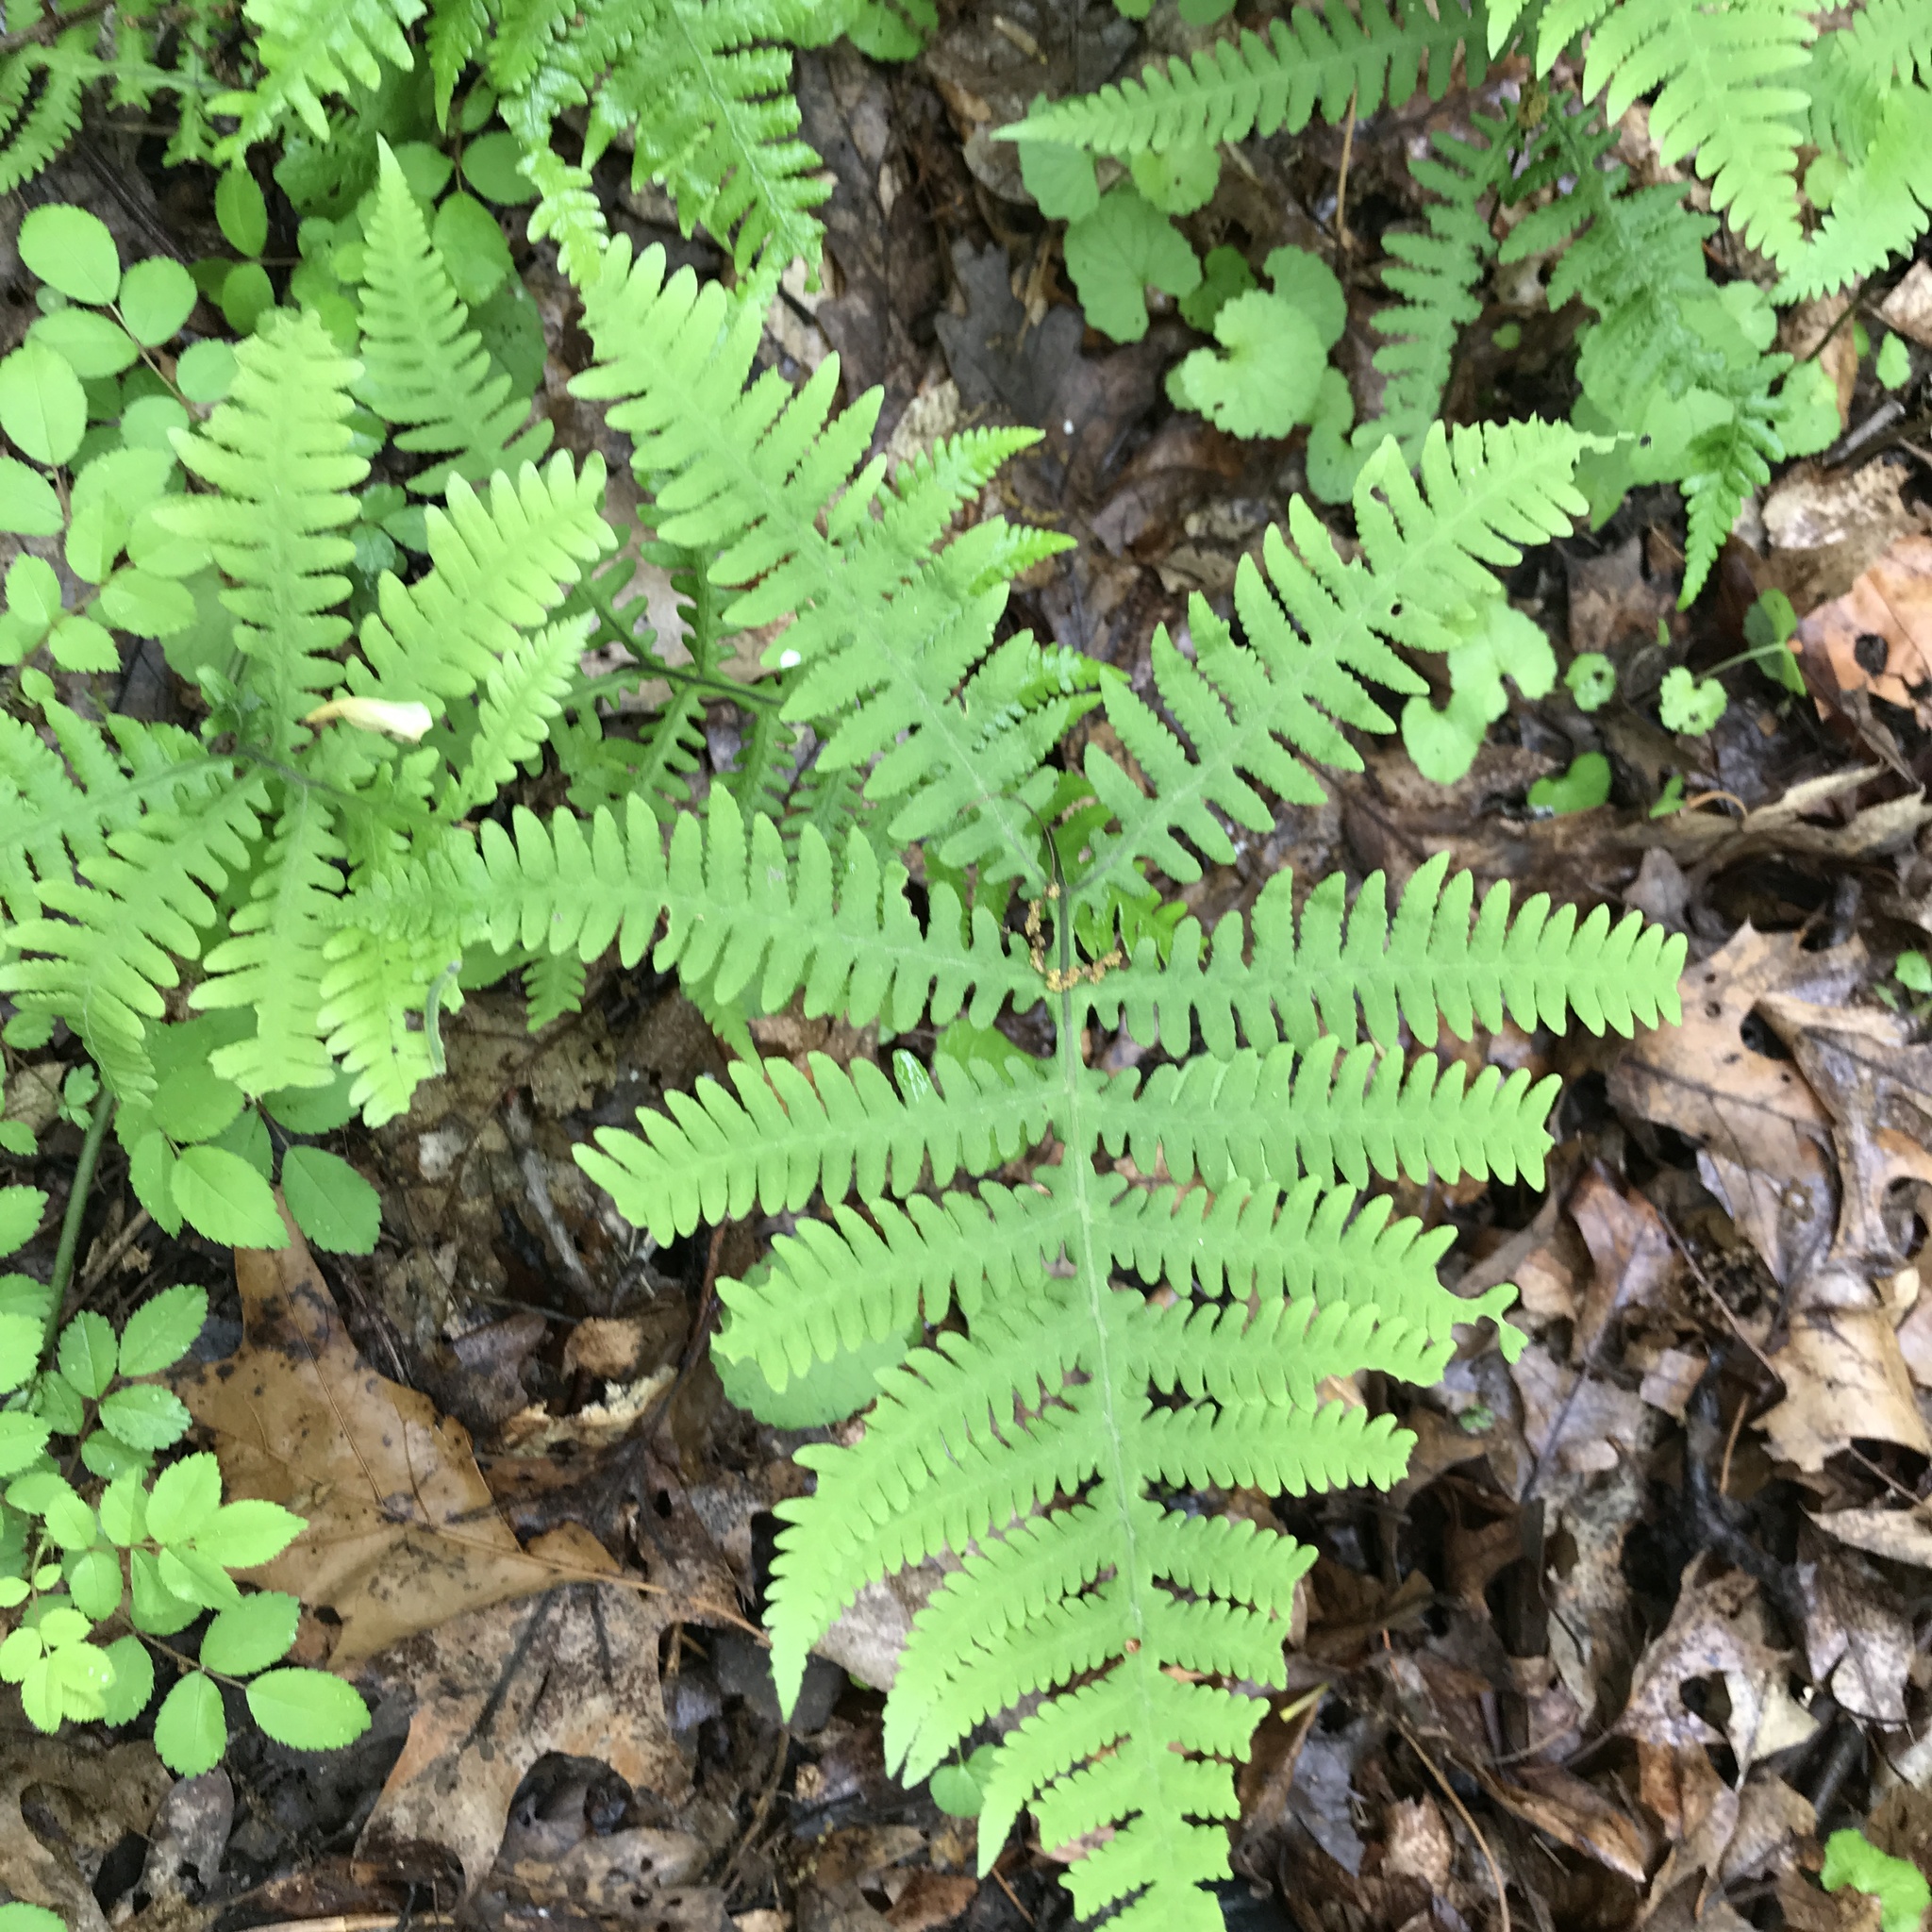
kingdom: Plantae
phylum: Tracheophyta
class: Polypodiopsida
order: Polypodiales
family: Thelypteridaceae
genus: Phegopteris
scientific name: Phegopteris hexagonoptera
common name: Broad beech fern
